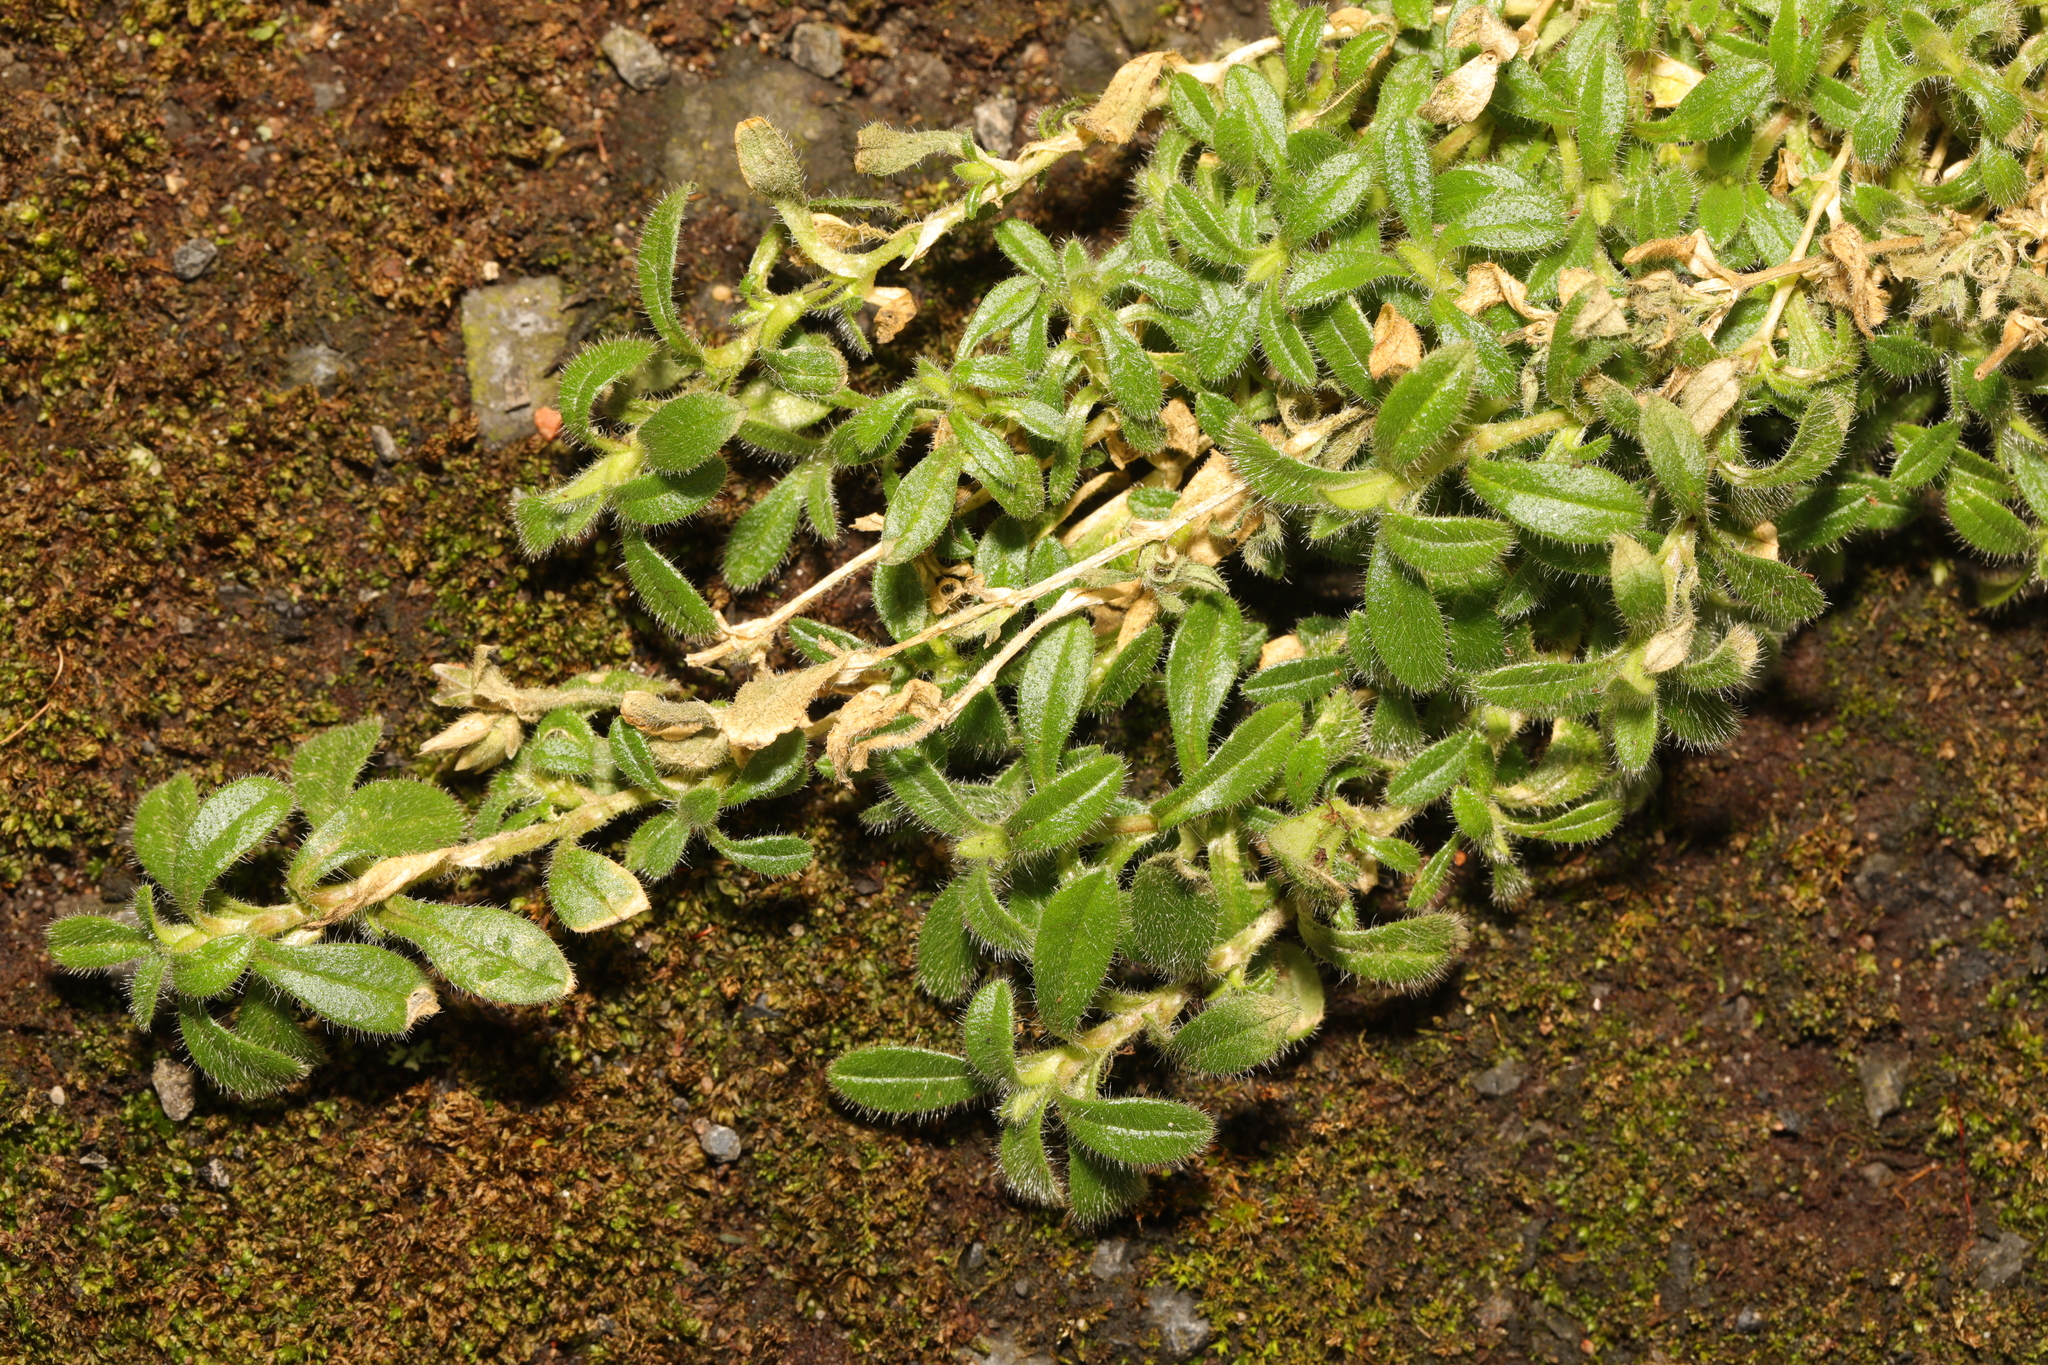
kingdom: Plantae
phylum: Tracheophyta
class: Magnoliopsida
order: Caryophyllales
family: Caryophyllaceae
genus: Cerastium
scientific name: Cerastium fontanum
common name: Common mouse-ear
